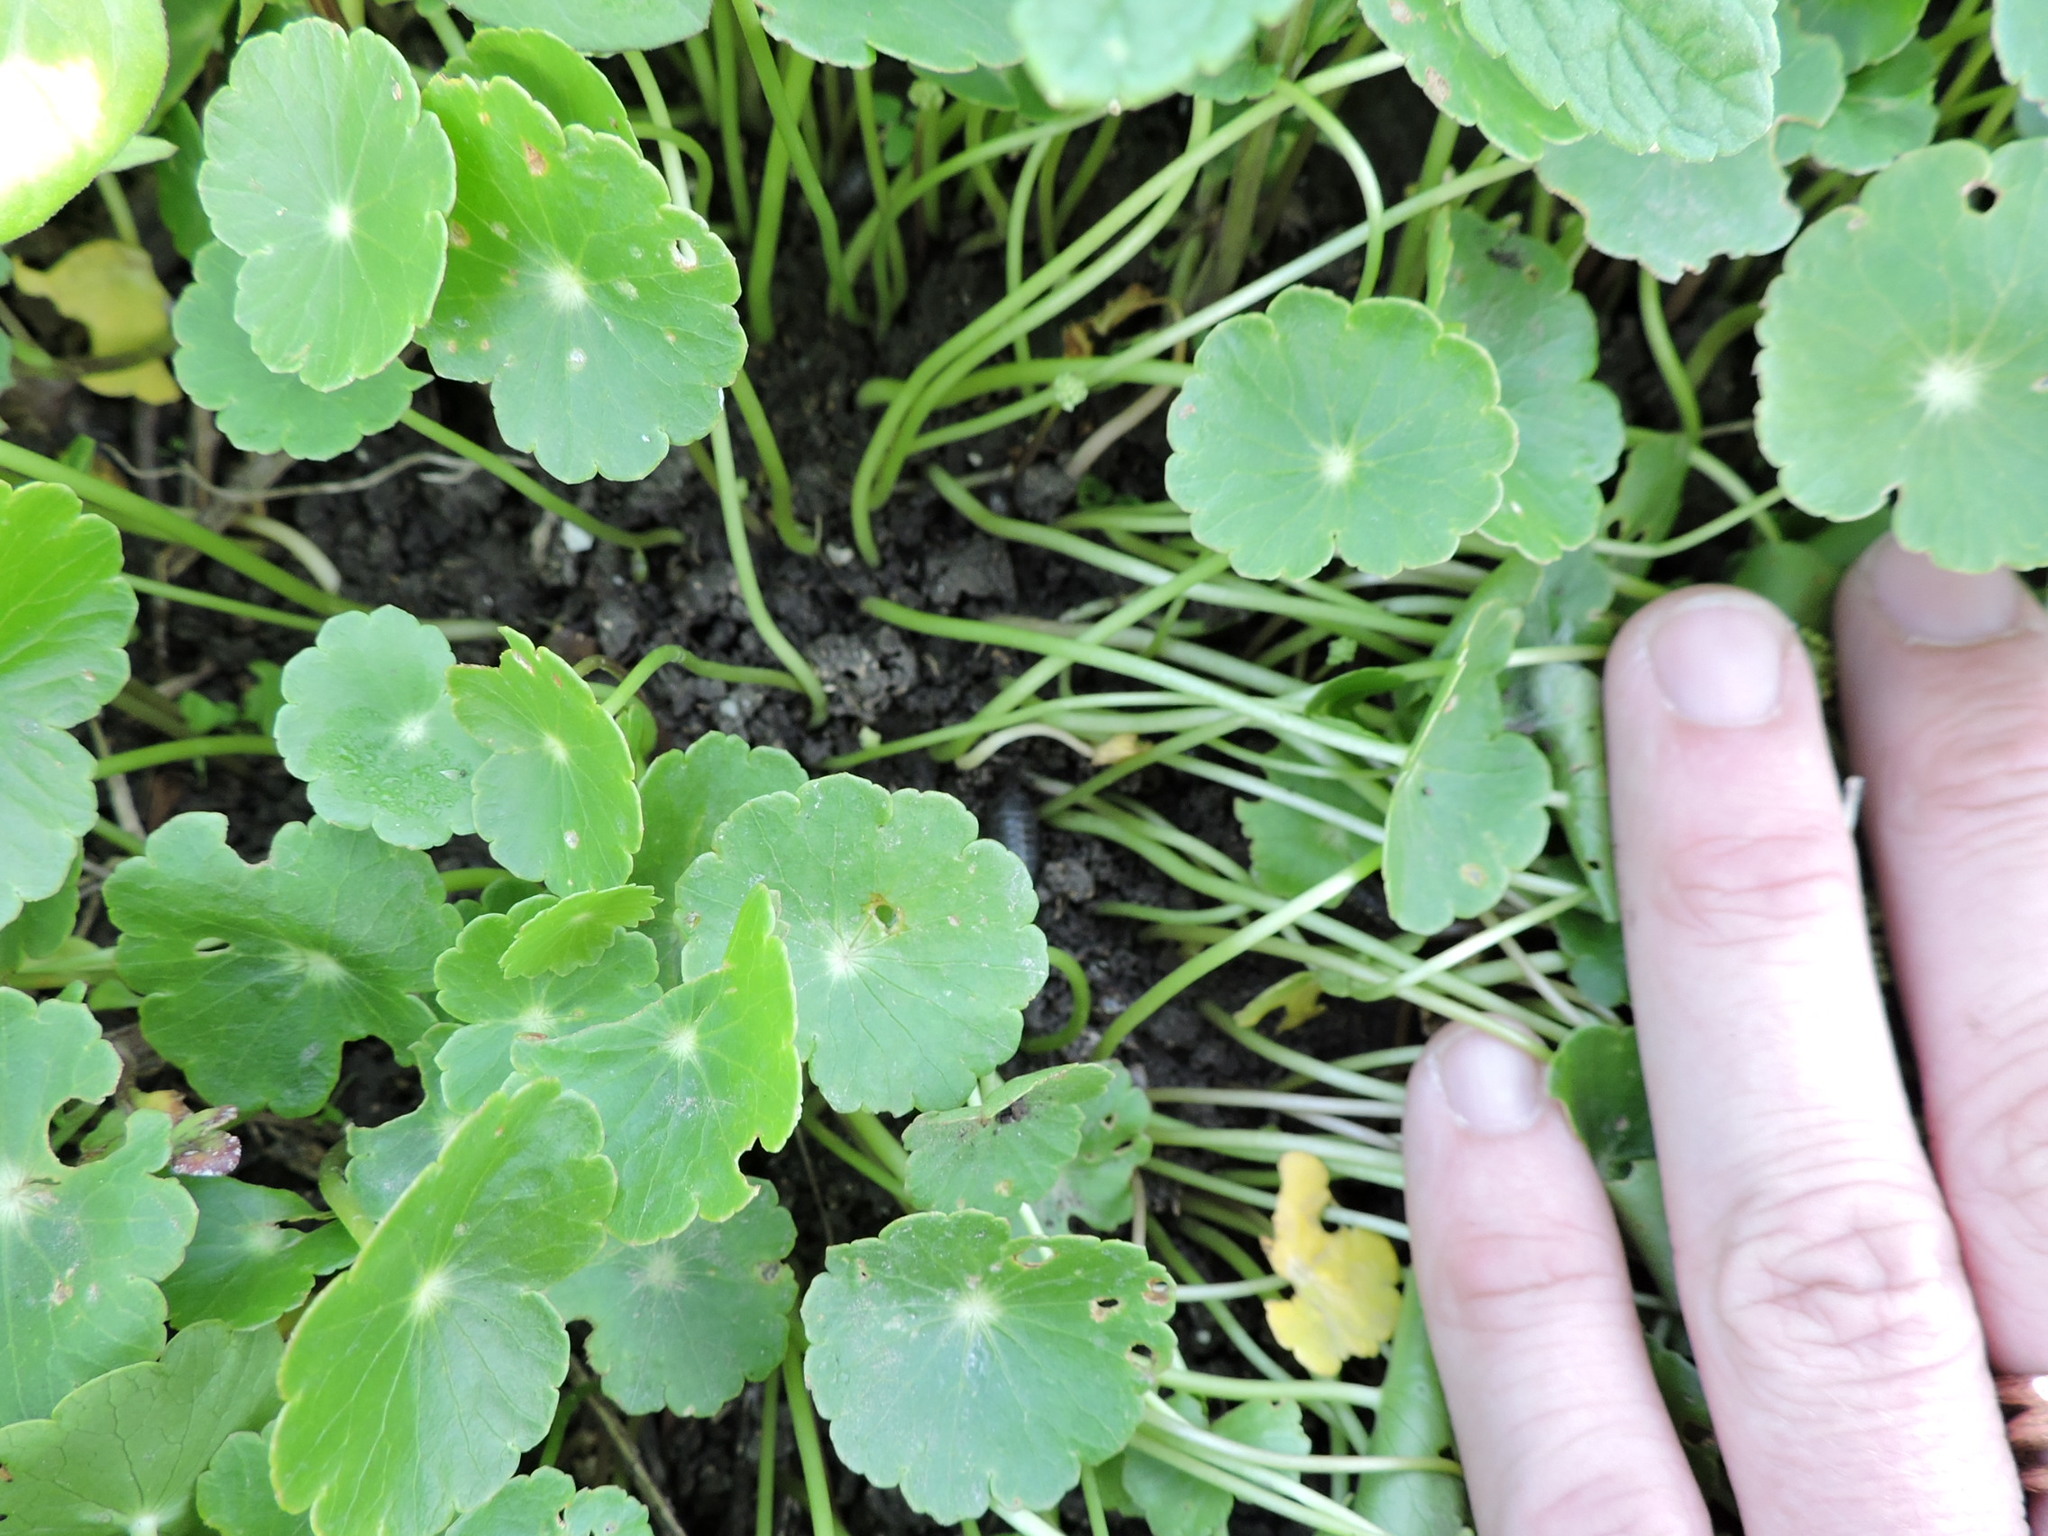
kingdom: Plantae
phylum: Tracheophyta
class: Magnoliopsida
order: Apiales
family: Araliaceae
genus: Hydrocotyle
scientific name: Hydrocotyle umbellata
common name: Water pennywort
